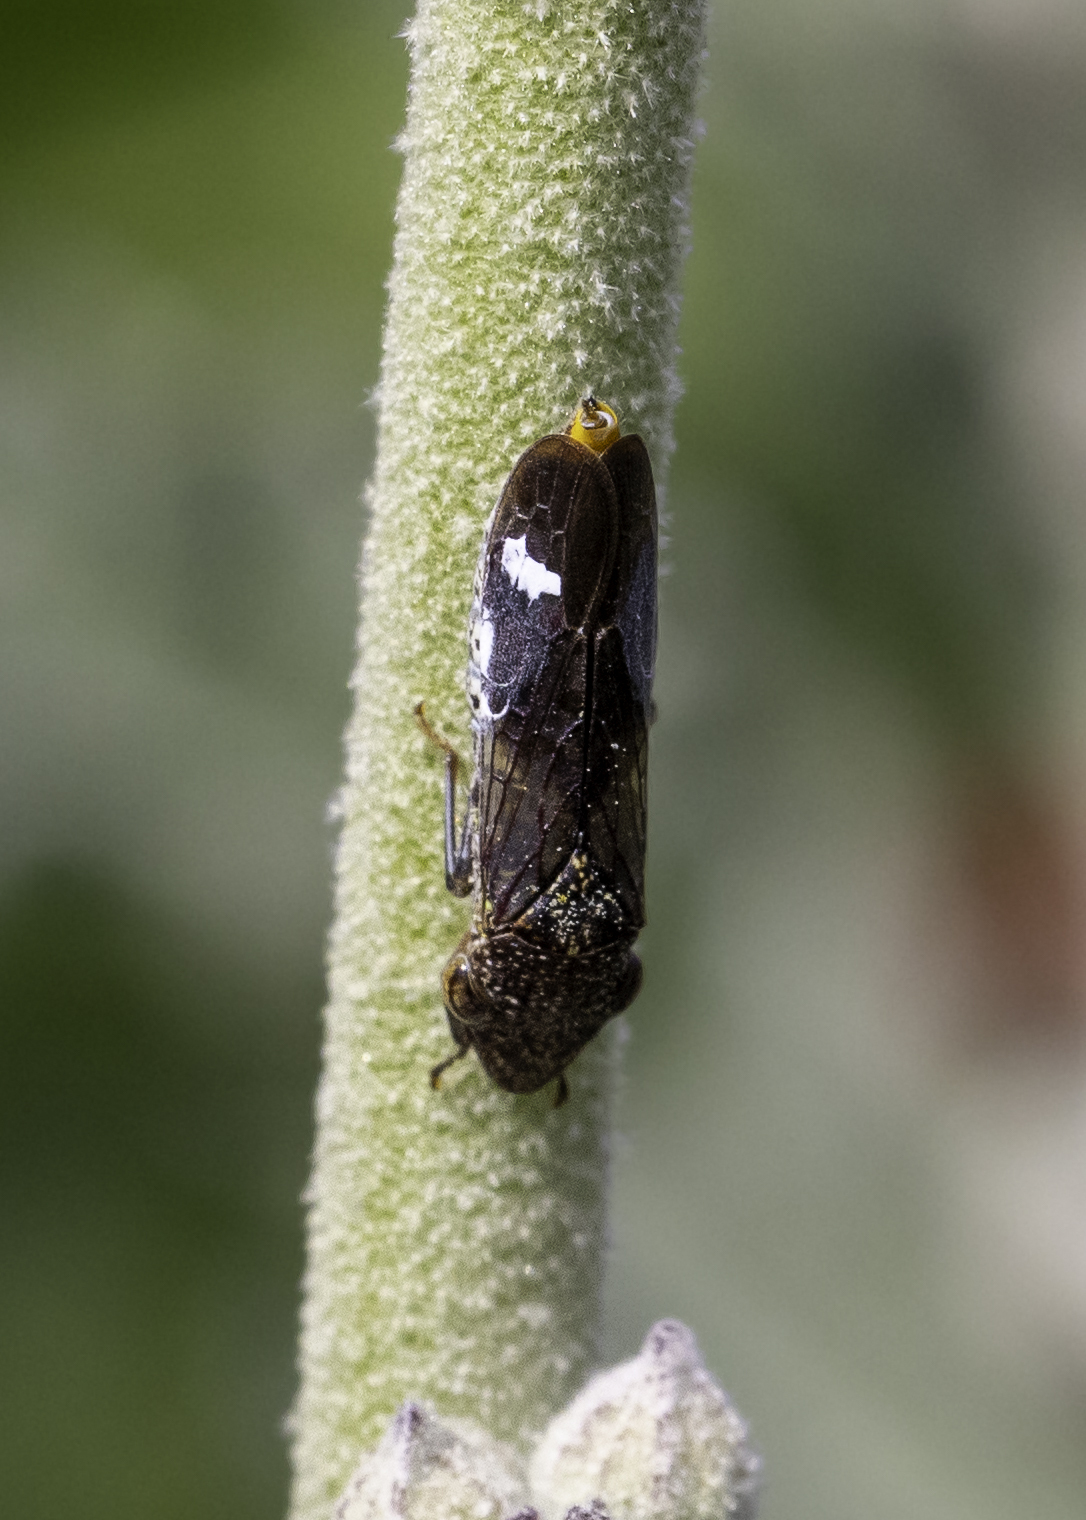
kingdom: Animalia
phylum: Arthropoda
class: Insecta
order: Hemiptera
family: Cicadellidae
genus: Homalodisca
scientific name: Homalodisca vitripennis
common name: Glassy-winged sharpshooter
